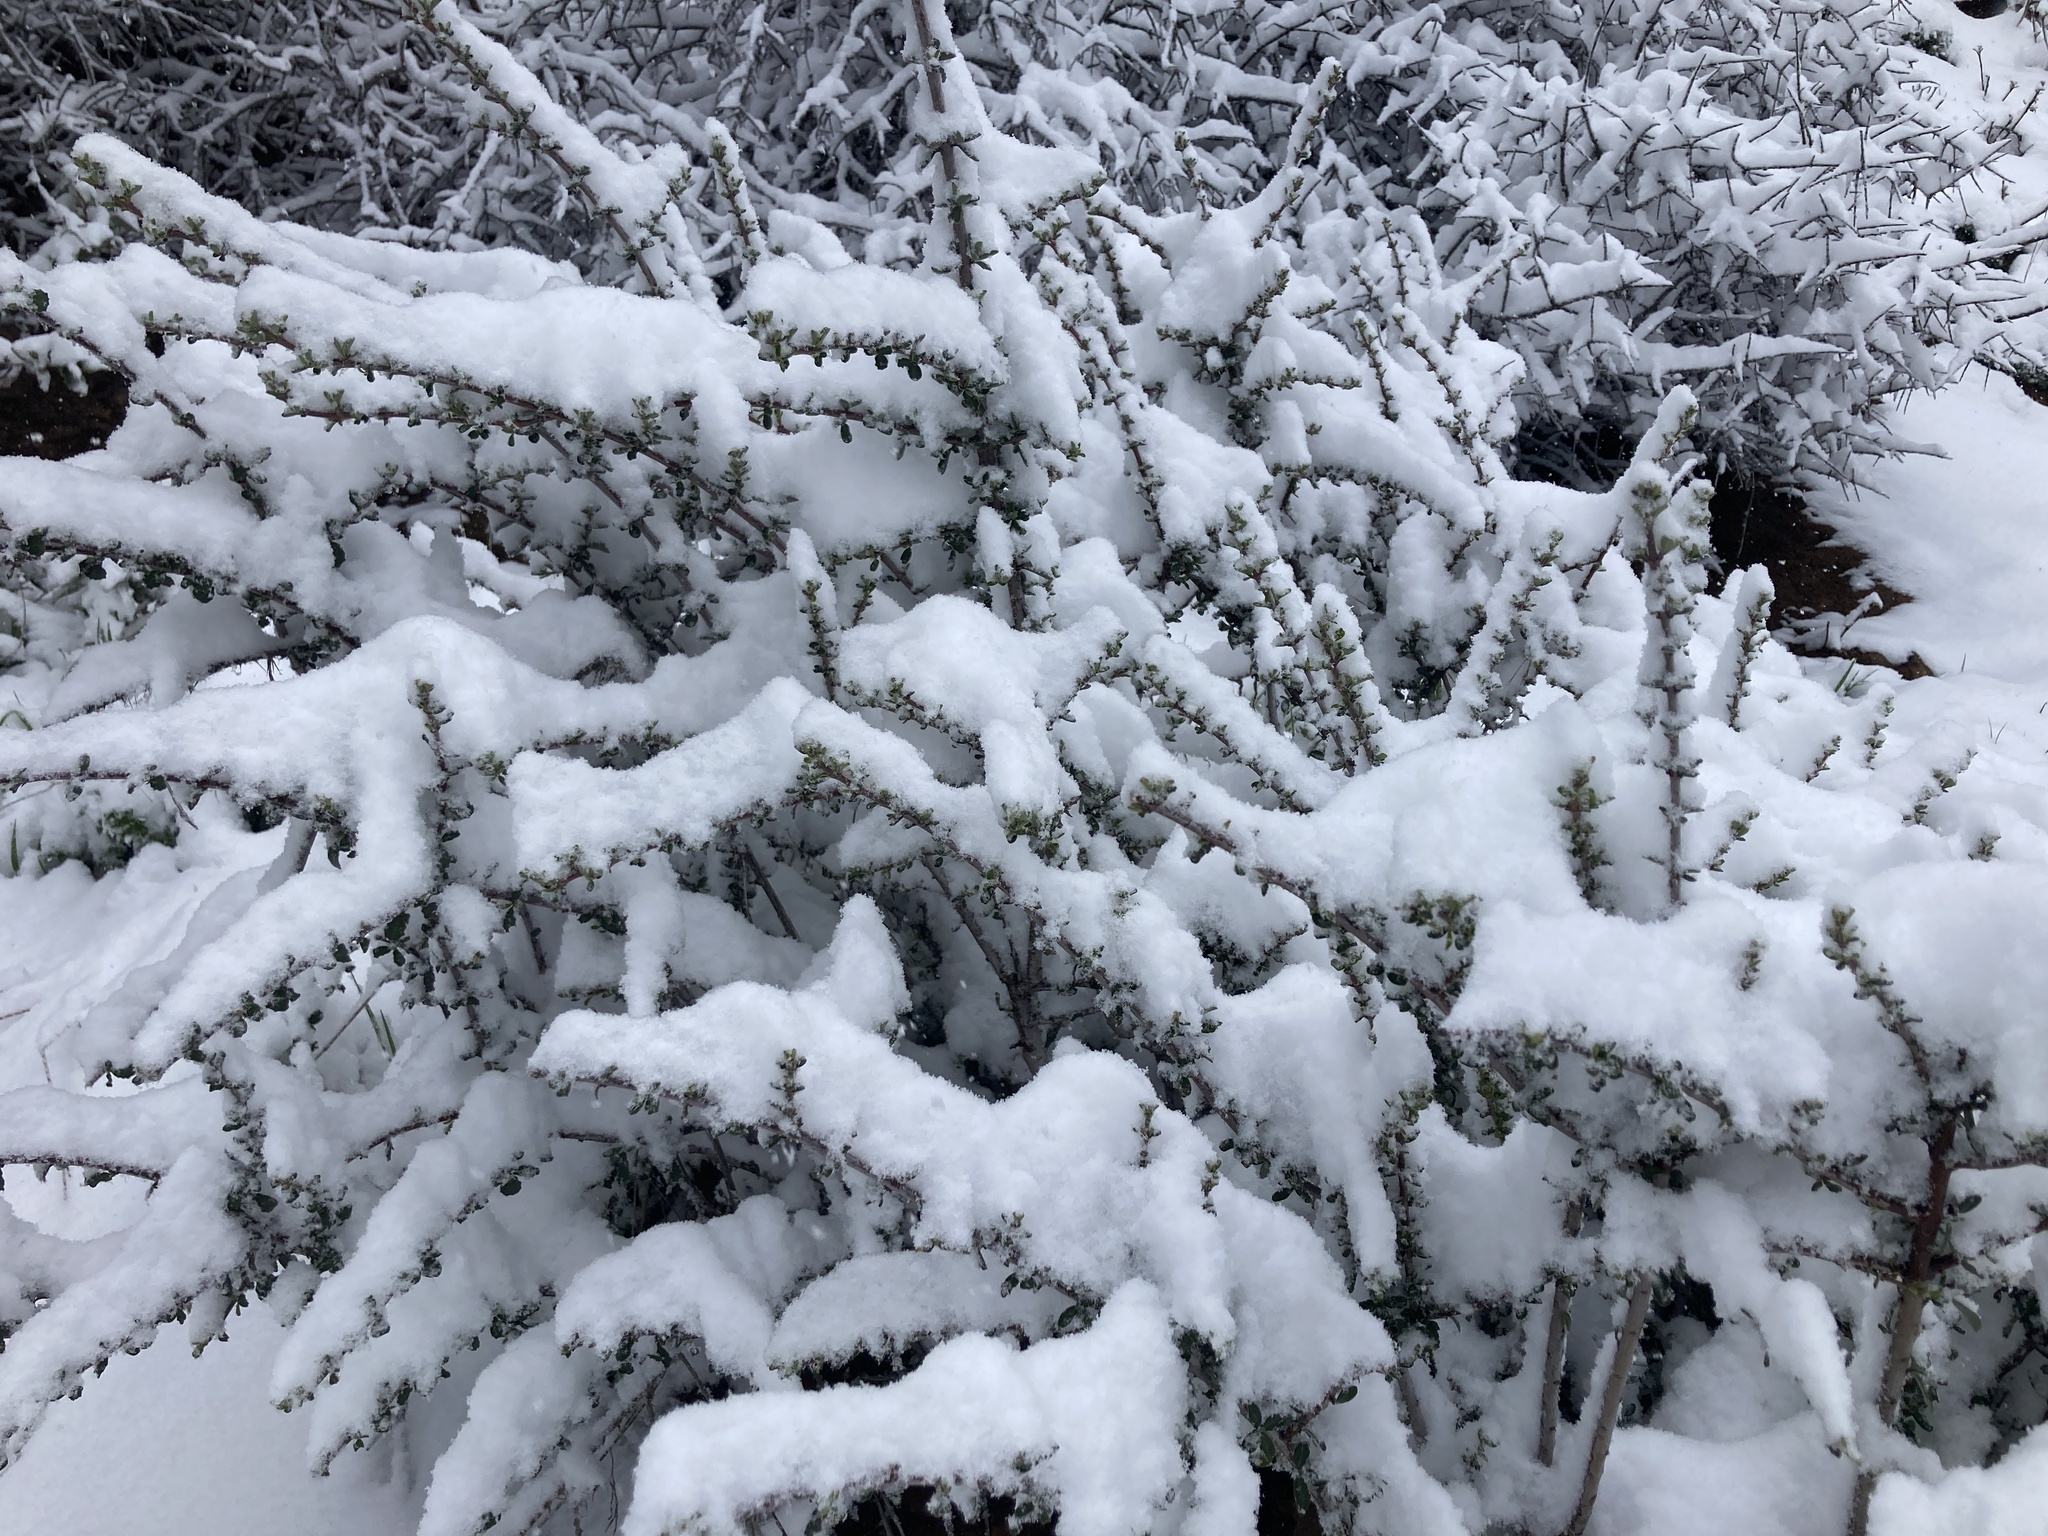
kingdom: Plantae
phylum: Tracheophyta
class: Magnoliopsida
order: Rosales
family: Rhamnaceae
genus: Ceanothus
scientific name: Ceanothus cuneatus
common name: Cuneate ceanothus
